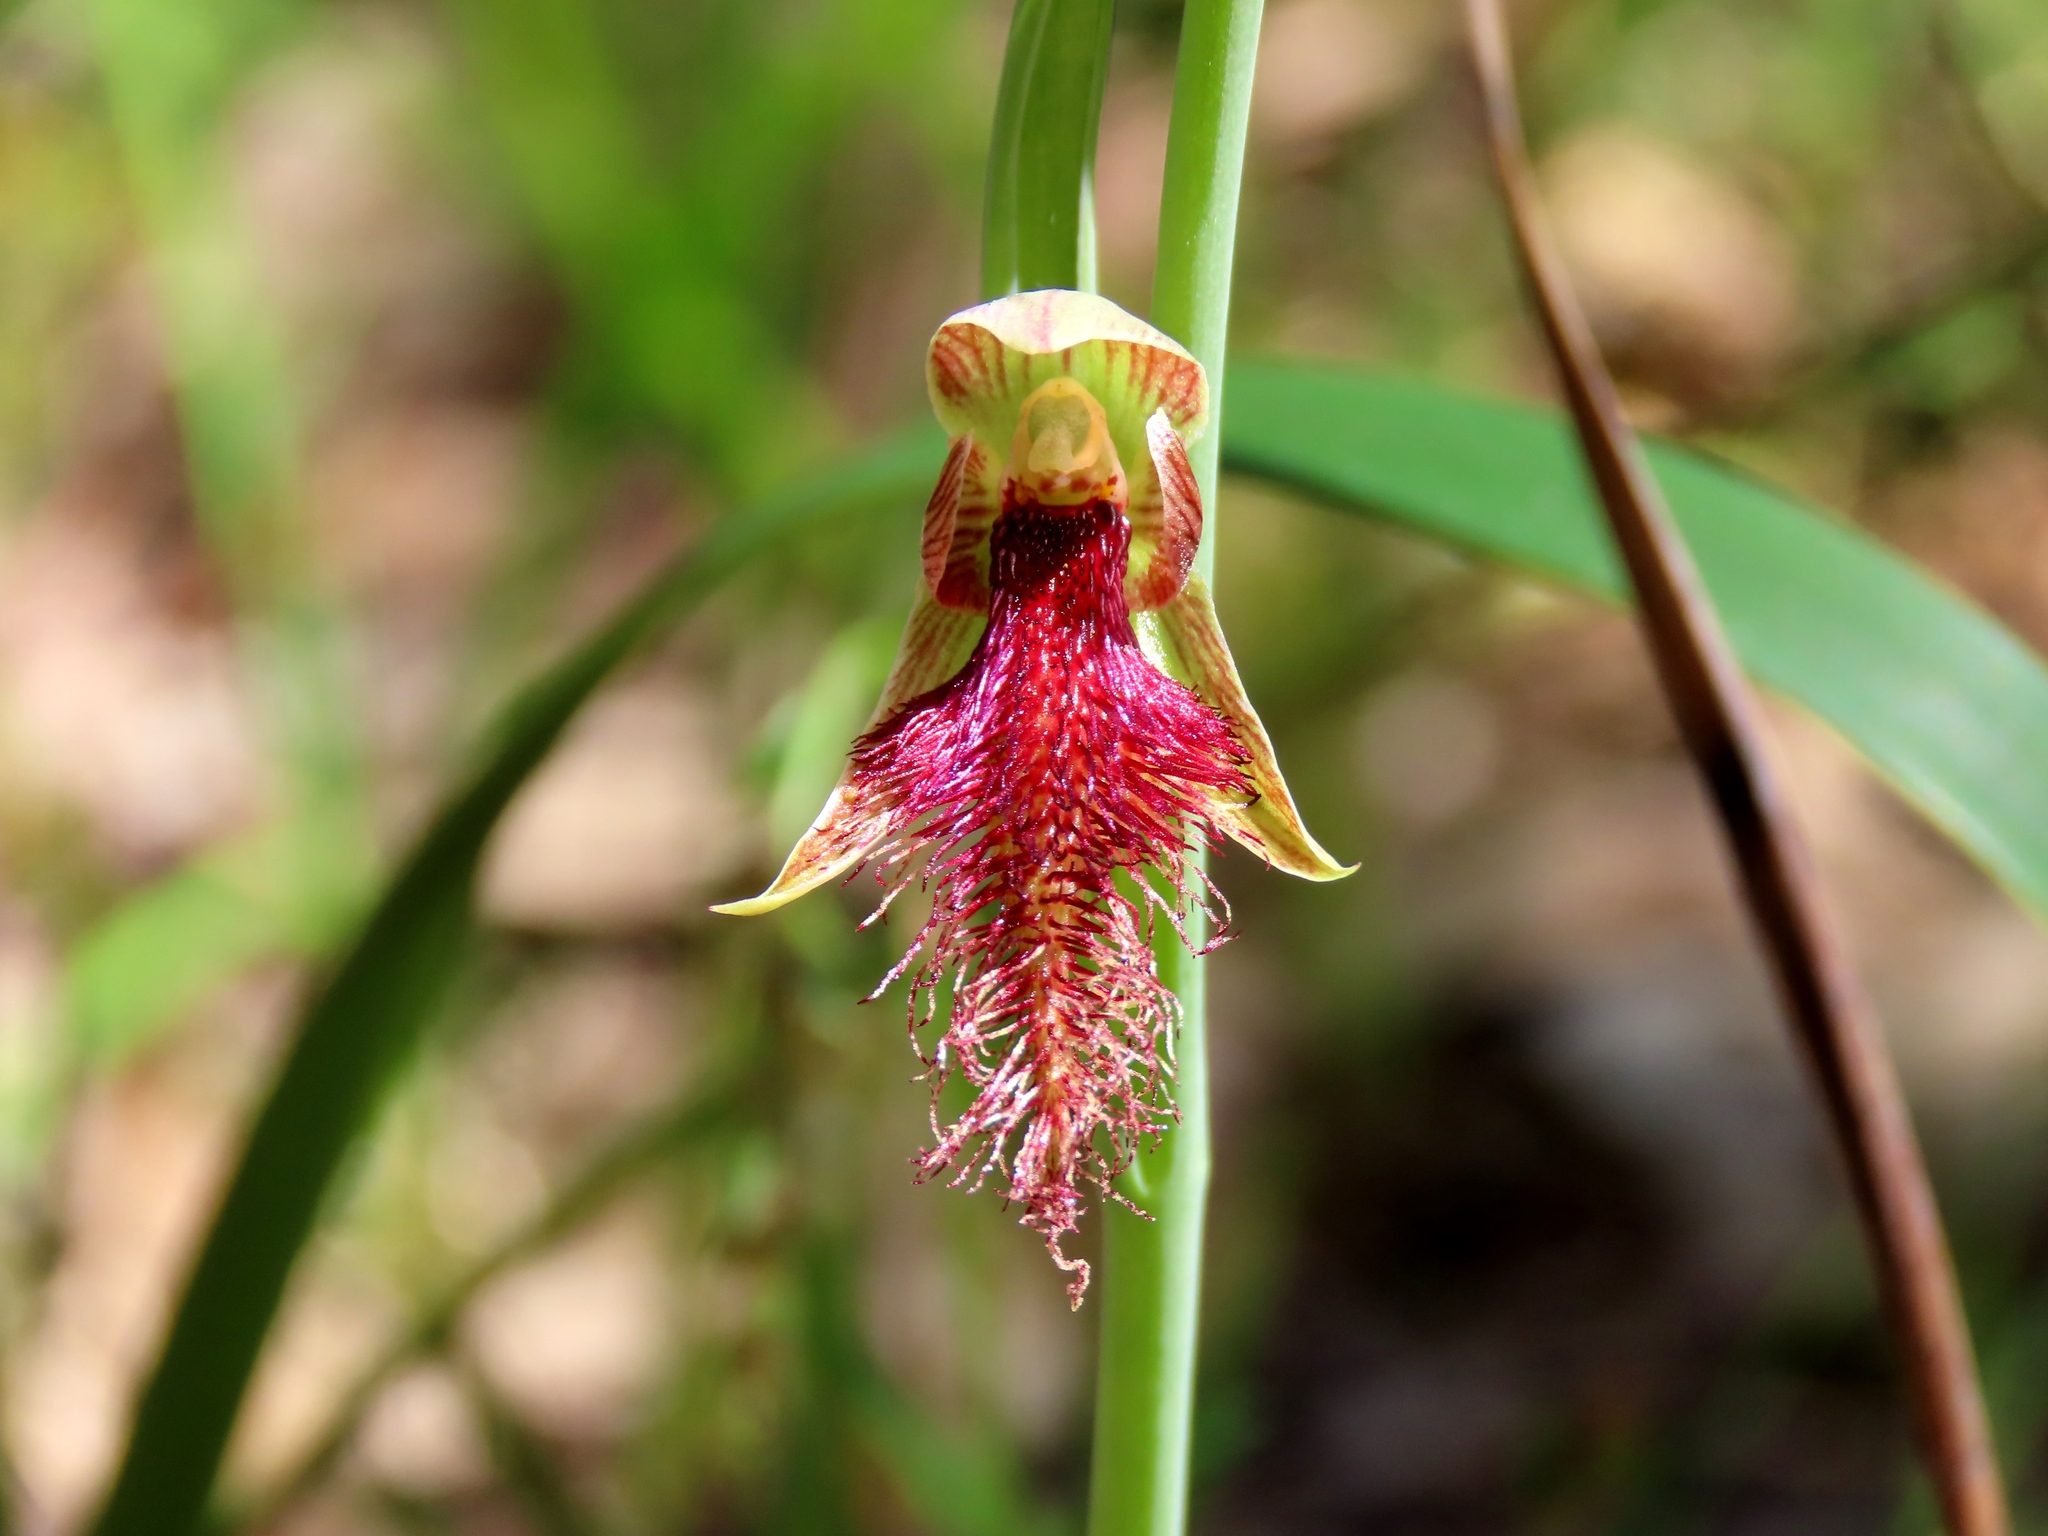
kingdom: Plantae
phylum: Tracheophyta
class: Liliopsida
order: Asparagales
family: Orchidaceae
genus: Calochilus
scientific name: Calochilus robertsonii
